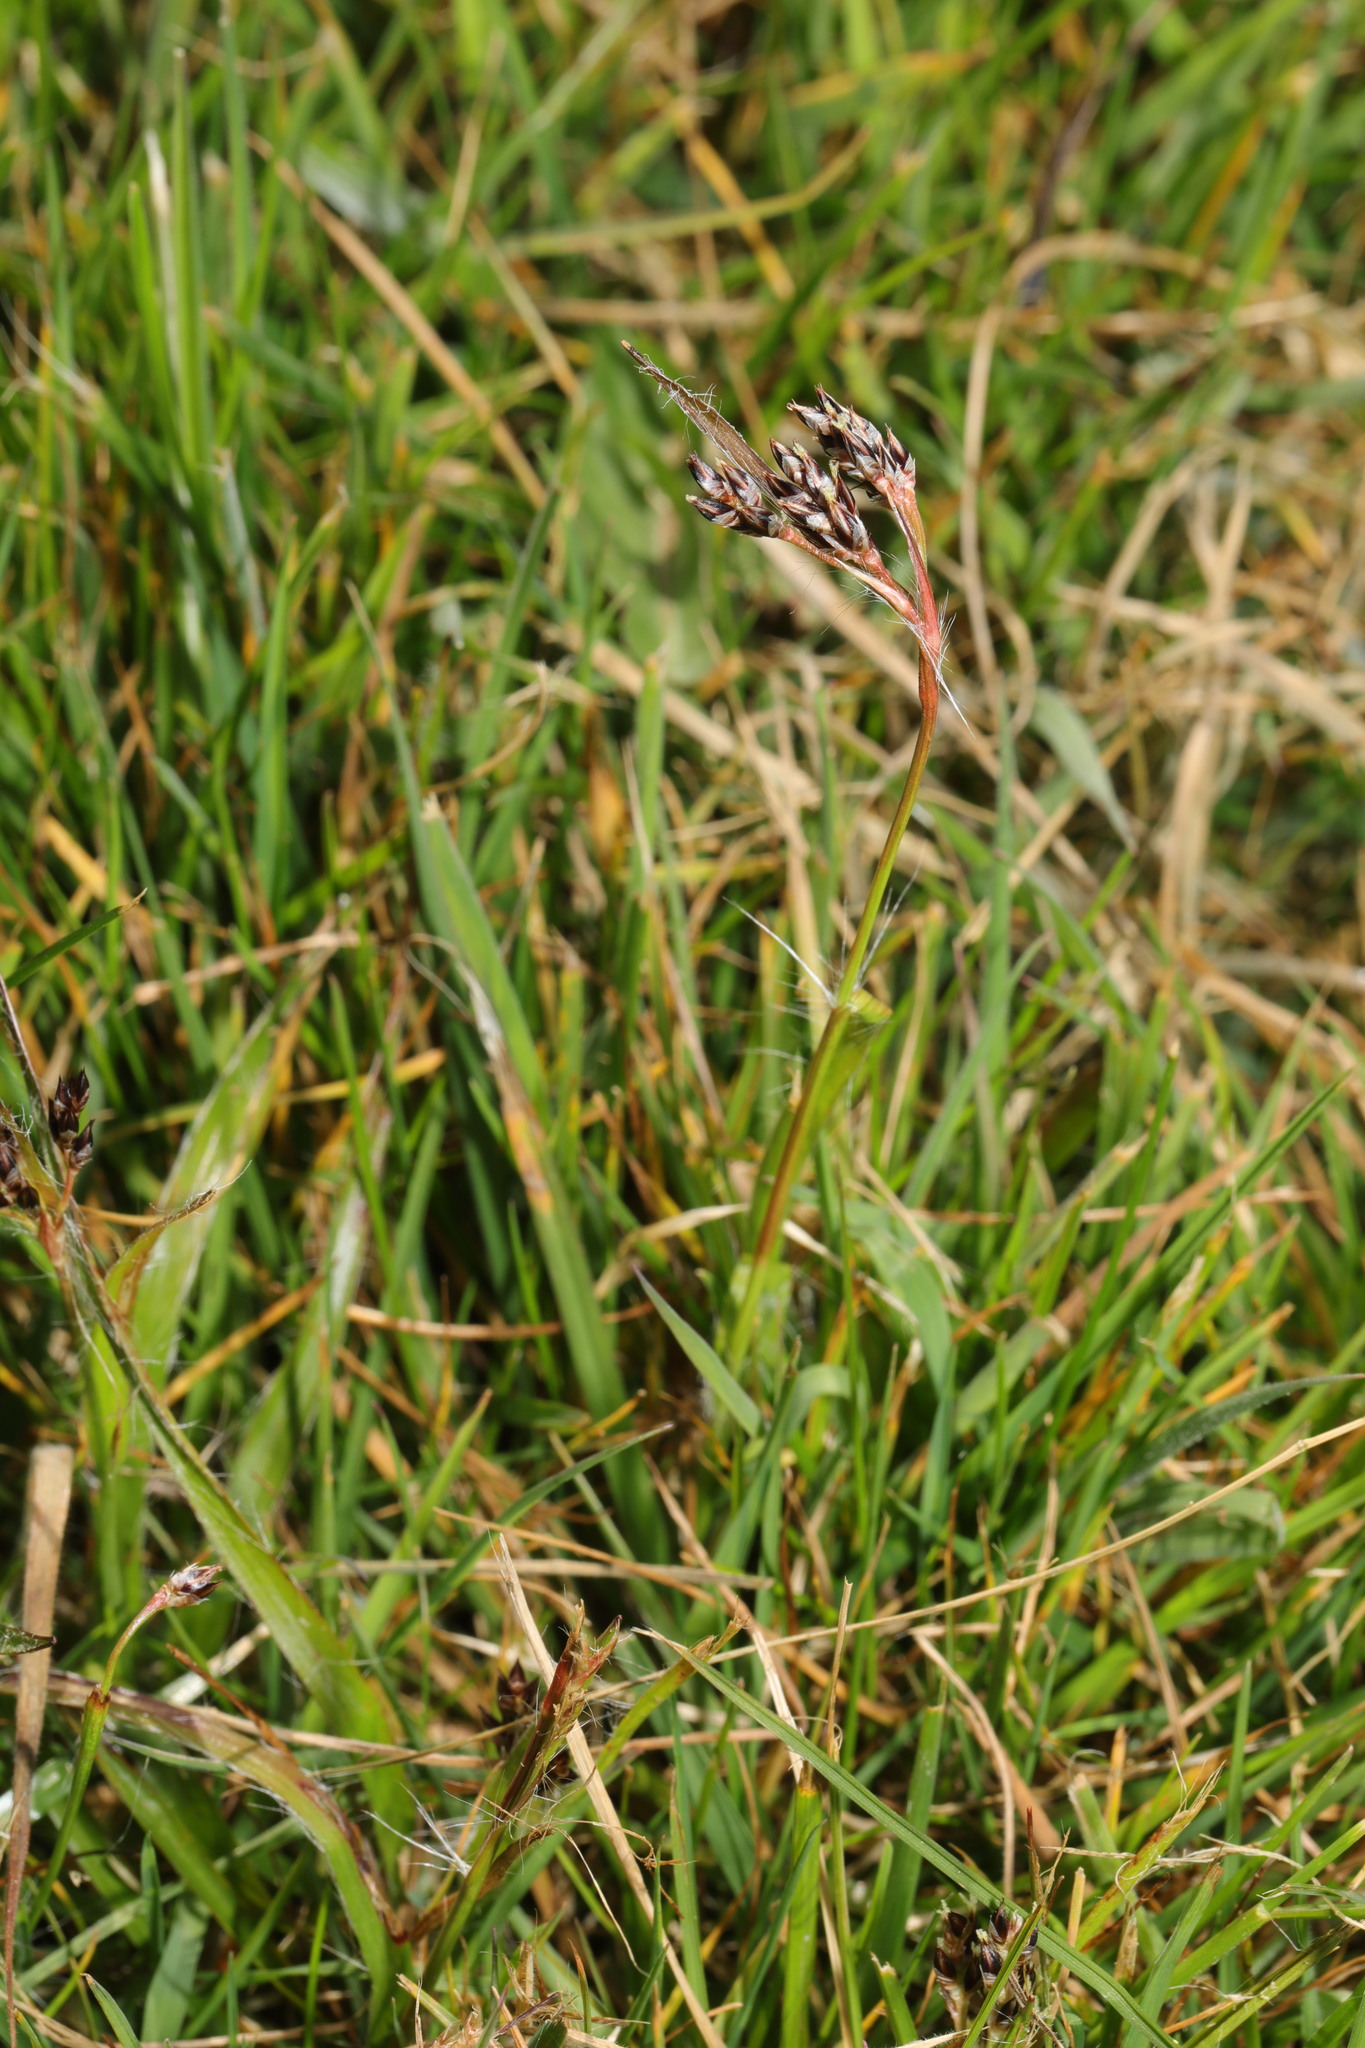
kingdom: Plantae
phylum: Tracheophyta
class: Liliopsida
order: Poales
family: Juncaceae
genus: Luzula
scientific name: Luzula campestris
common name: Field wood-rush
